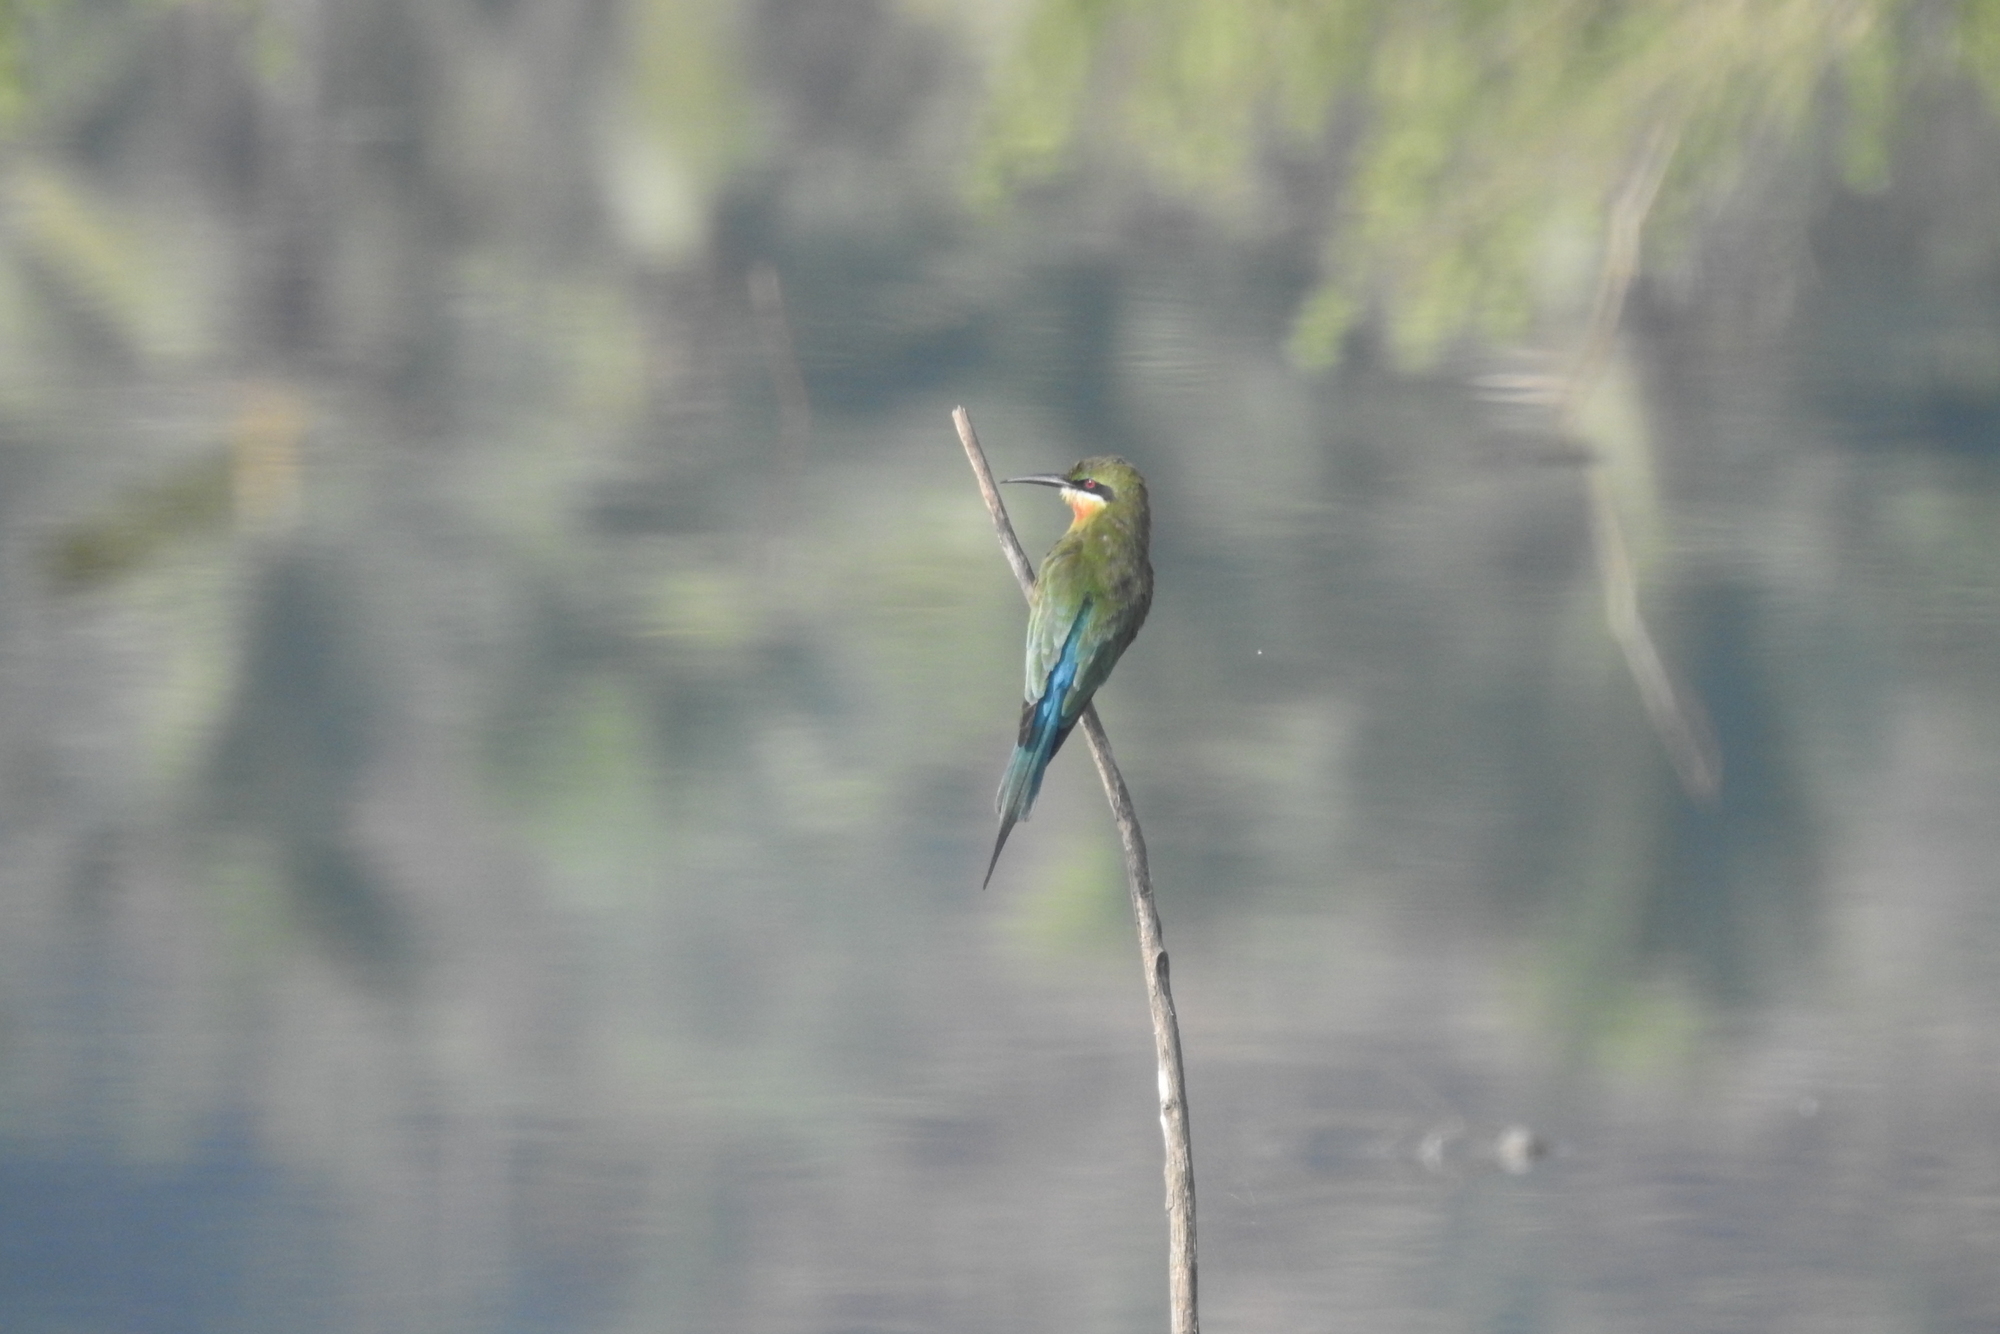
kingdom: Animalia
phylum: Chordata
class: Aves
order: Coraciiformes
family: Meropidae
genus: Merops
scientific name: Merops philippinus
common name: Blue-tailed bee-eater
